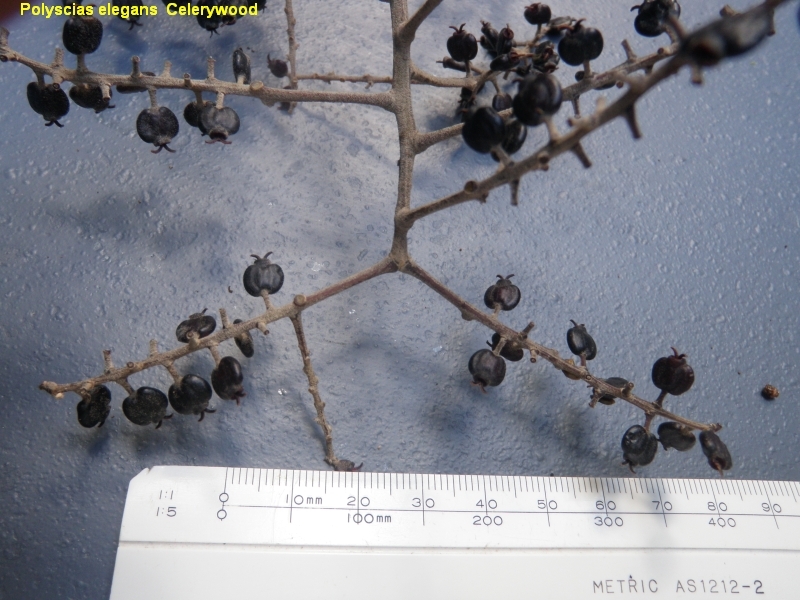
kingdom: Plantae
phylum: Tracheophyta
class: Magnoliopsida
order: Apiales
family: Araliaceae
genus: Polyscias
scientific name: Polyscias elegans
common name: Mowbulan whitewood
